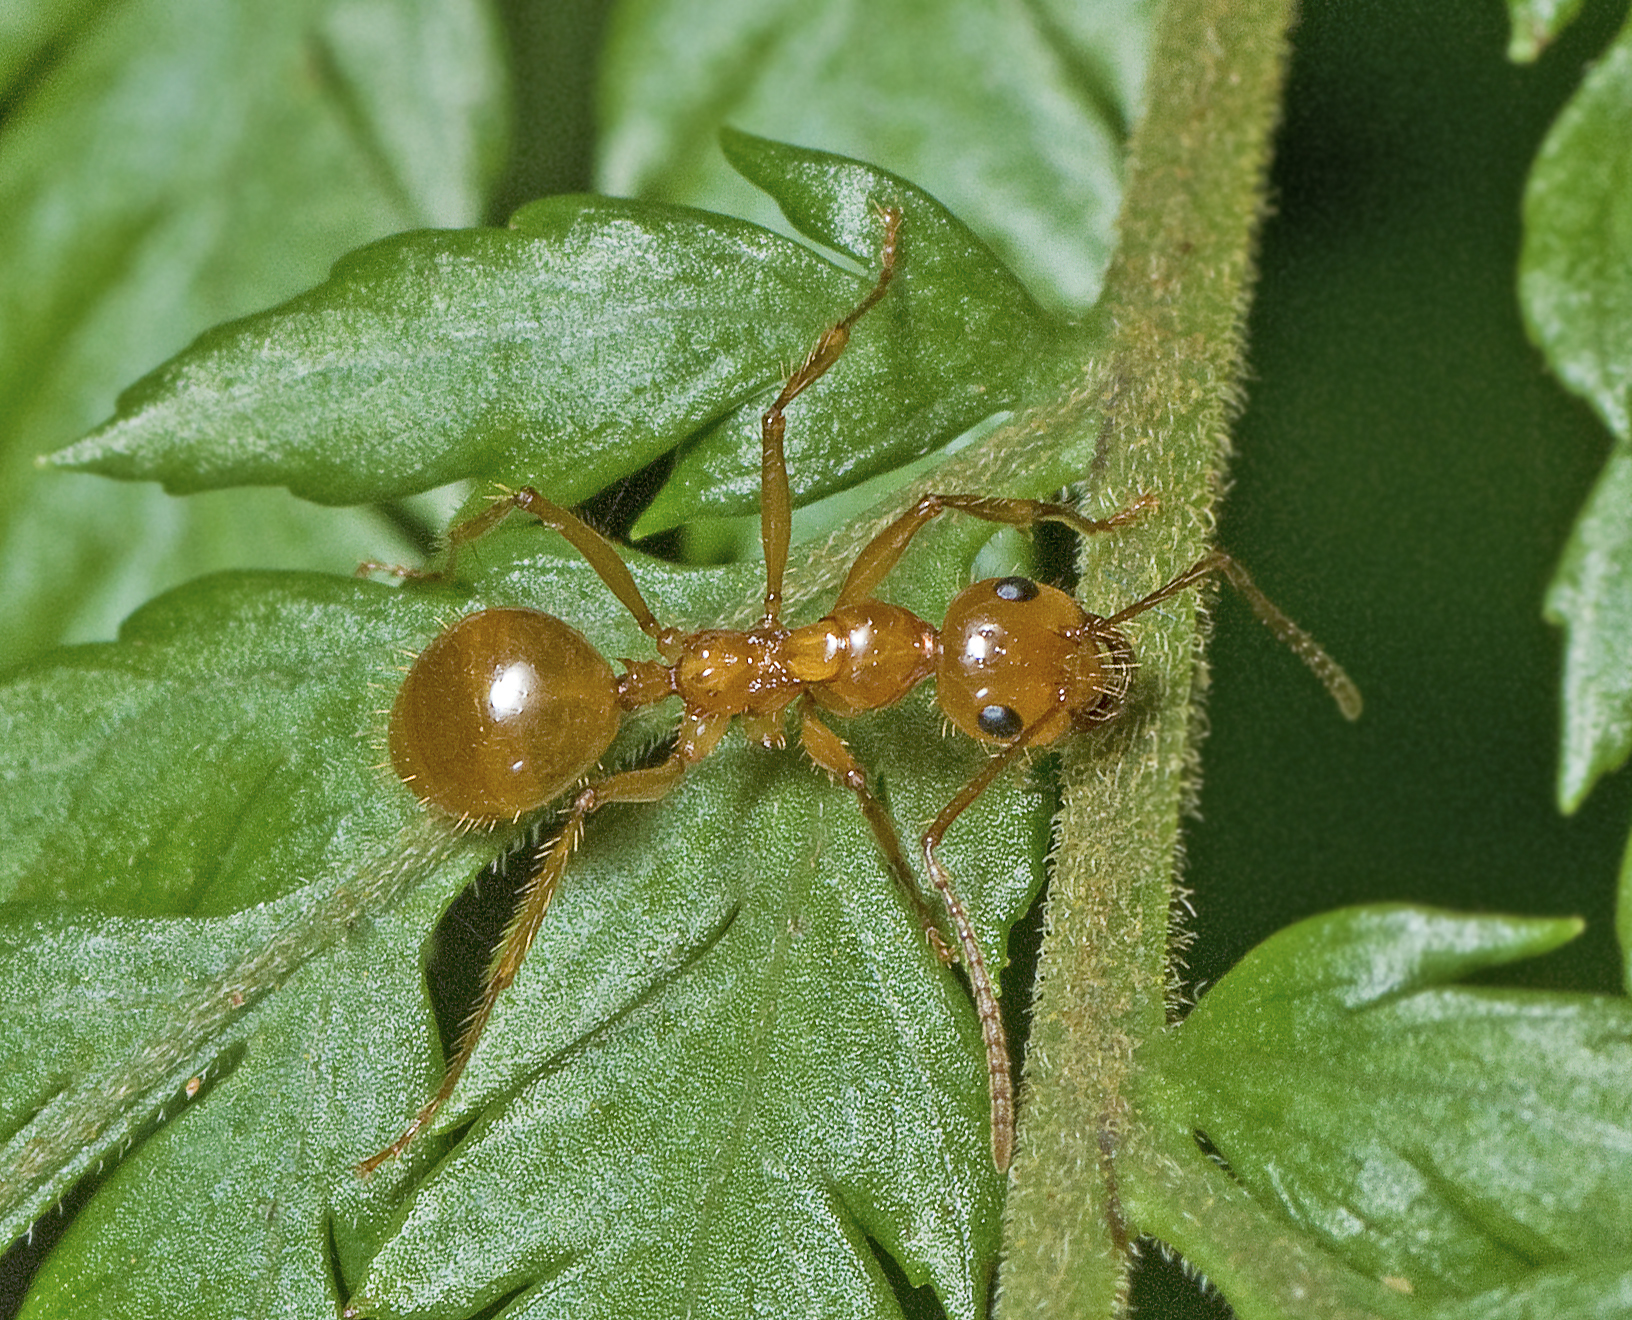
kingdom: Animalia
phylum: Arthropoda
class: Insecta
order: Hymenoptera
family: Formicidae
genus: Notoncus
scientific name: Notoncus spinisquamis
